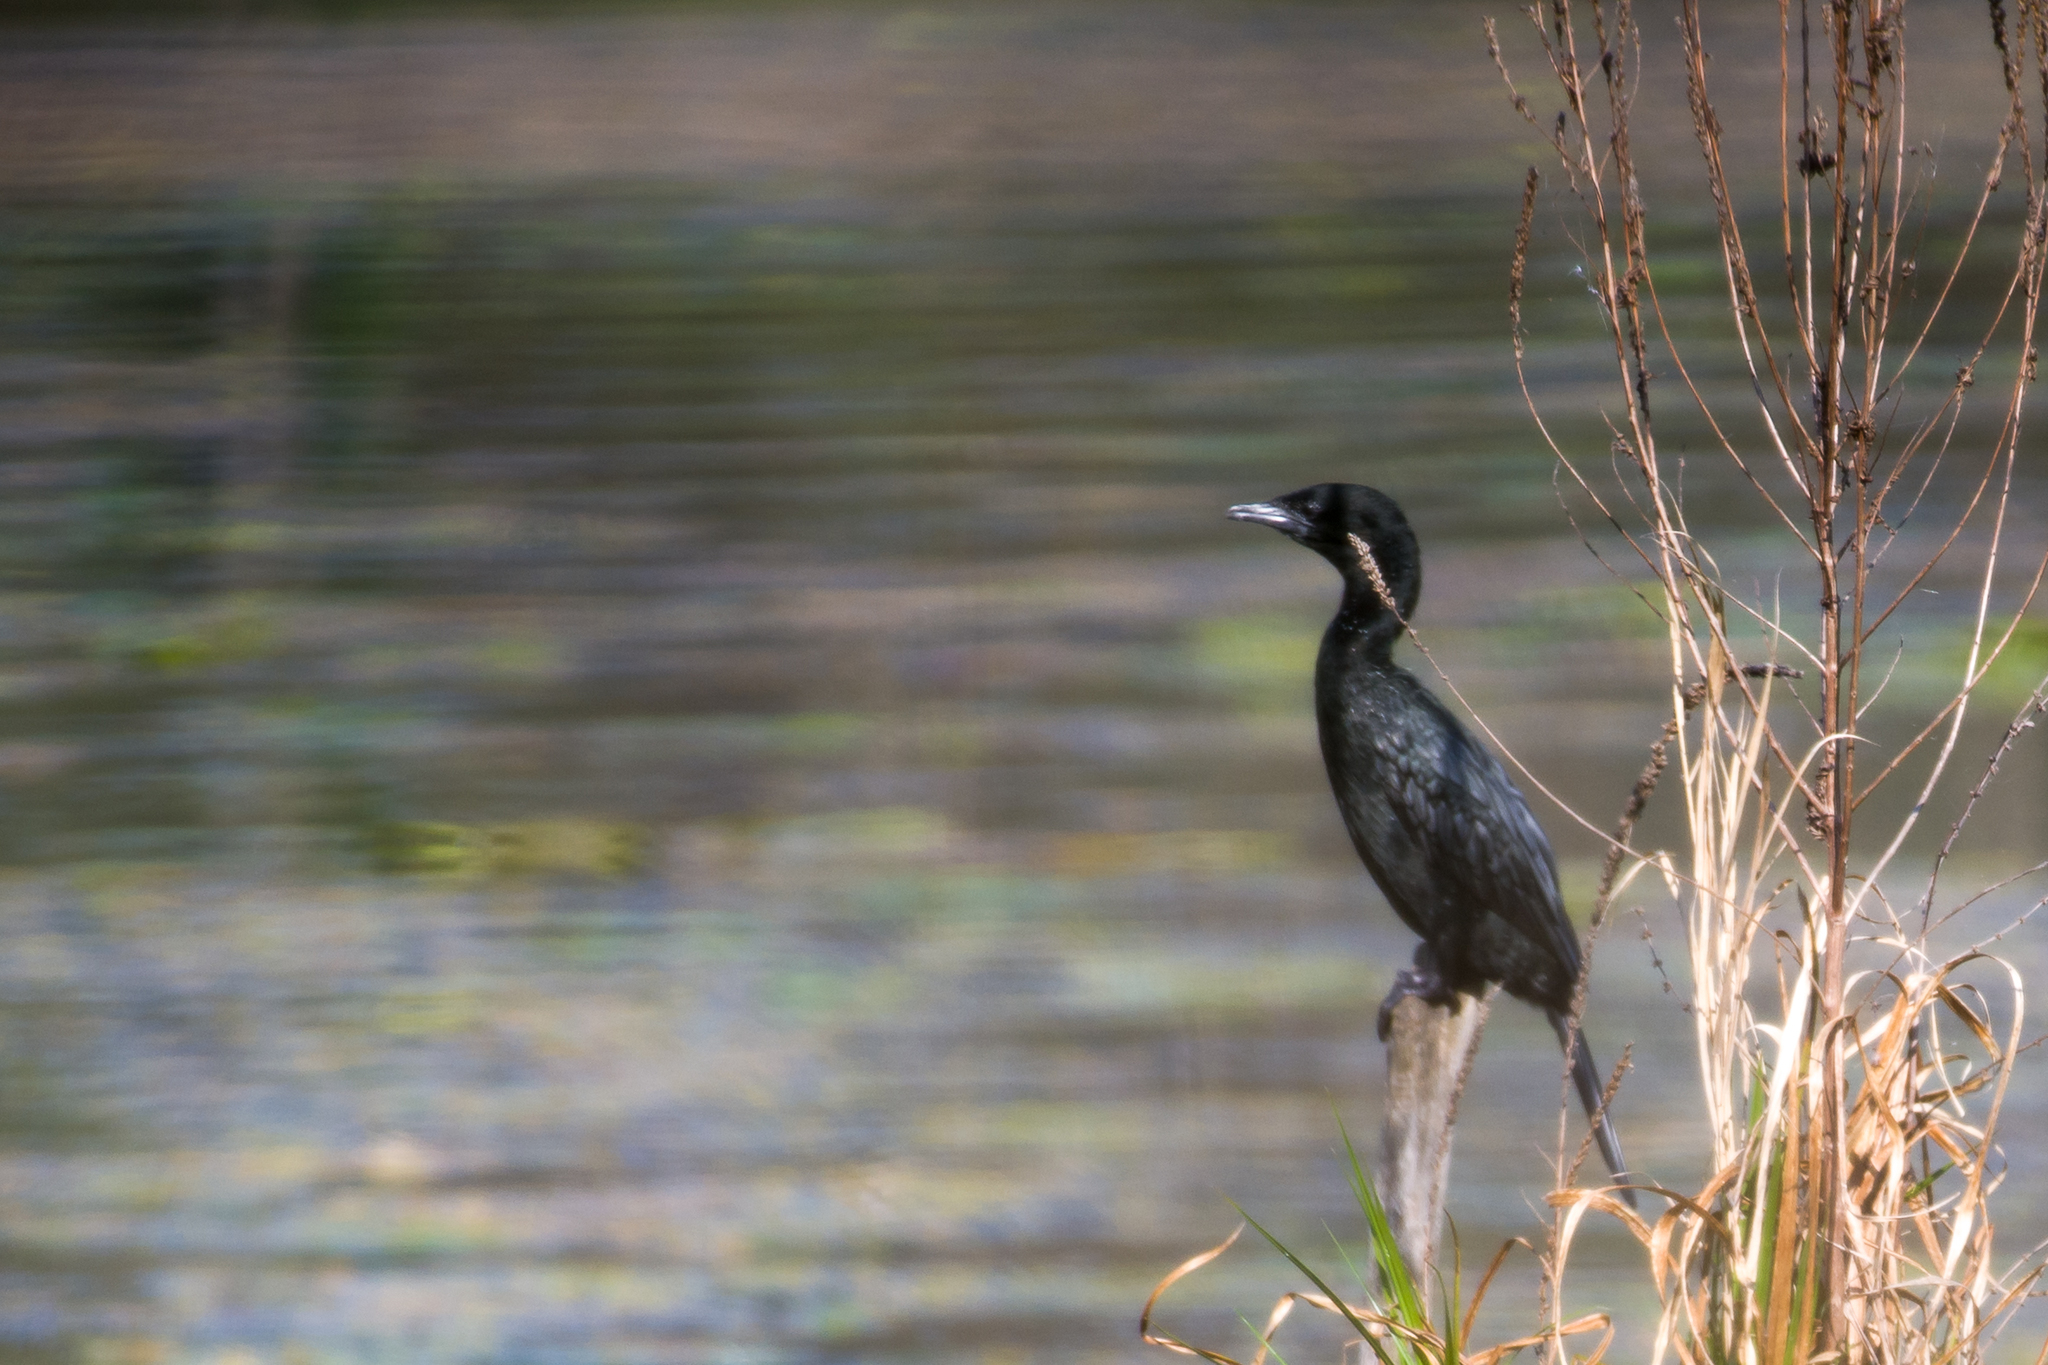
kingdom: Animalia
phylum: Chordata
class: Aves
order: Suliformes
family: Phalacrocoracidae
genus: Microcarbo
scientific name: Microcarbo pygmaeus
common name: Pygmy cormorant
